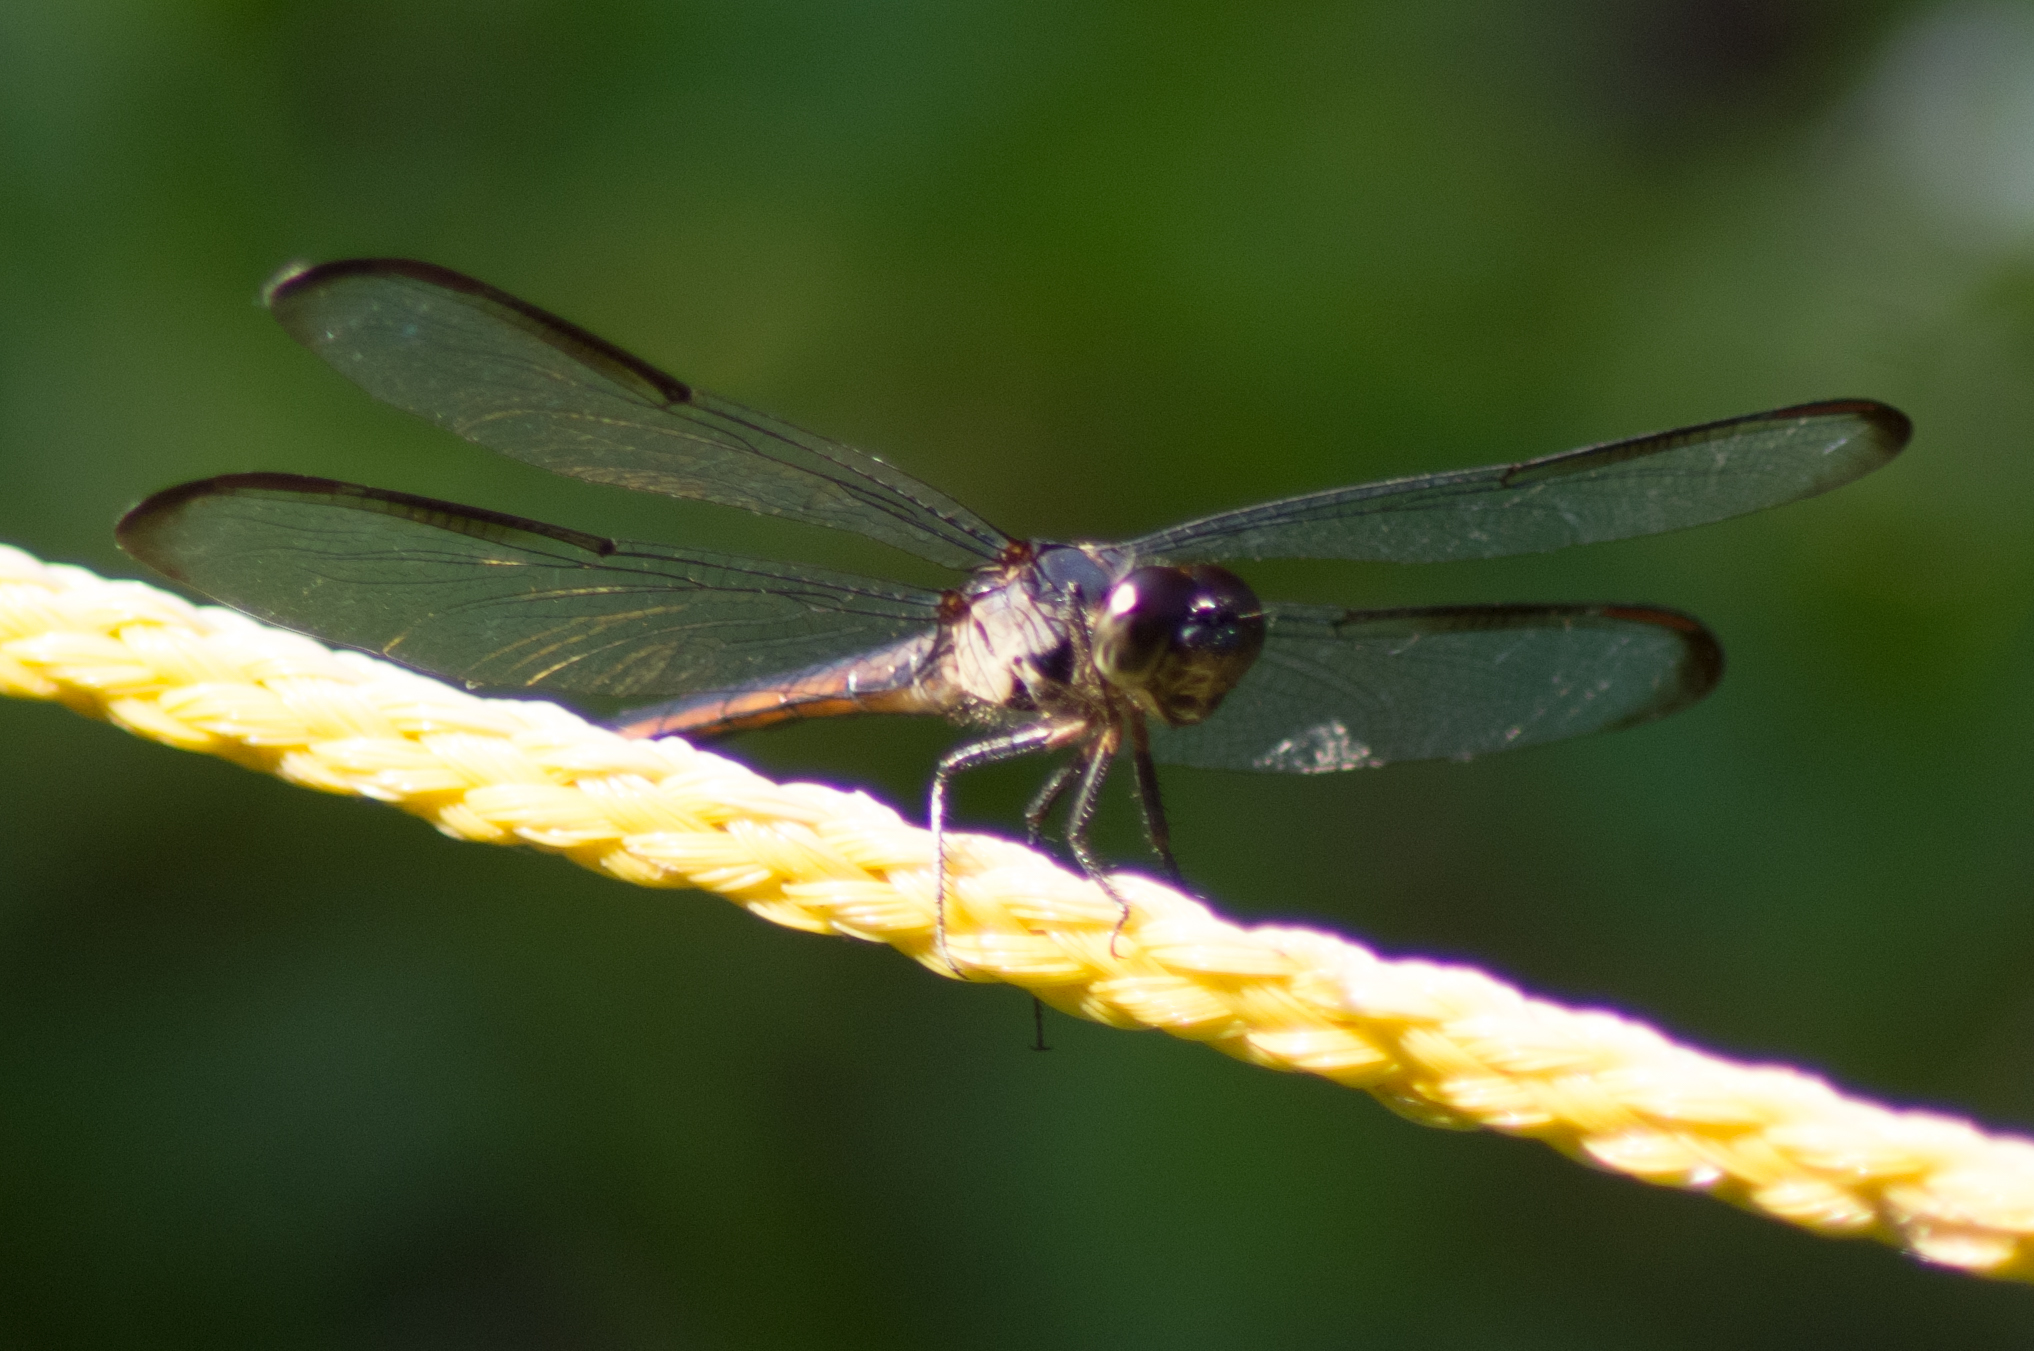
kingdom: Animalia
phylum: Arthropoda
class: Insecta
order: Odonata
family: Libellulidae
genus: Libellula
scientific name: Libellula incesta
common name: Slaty skimmer
